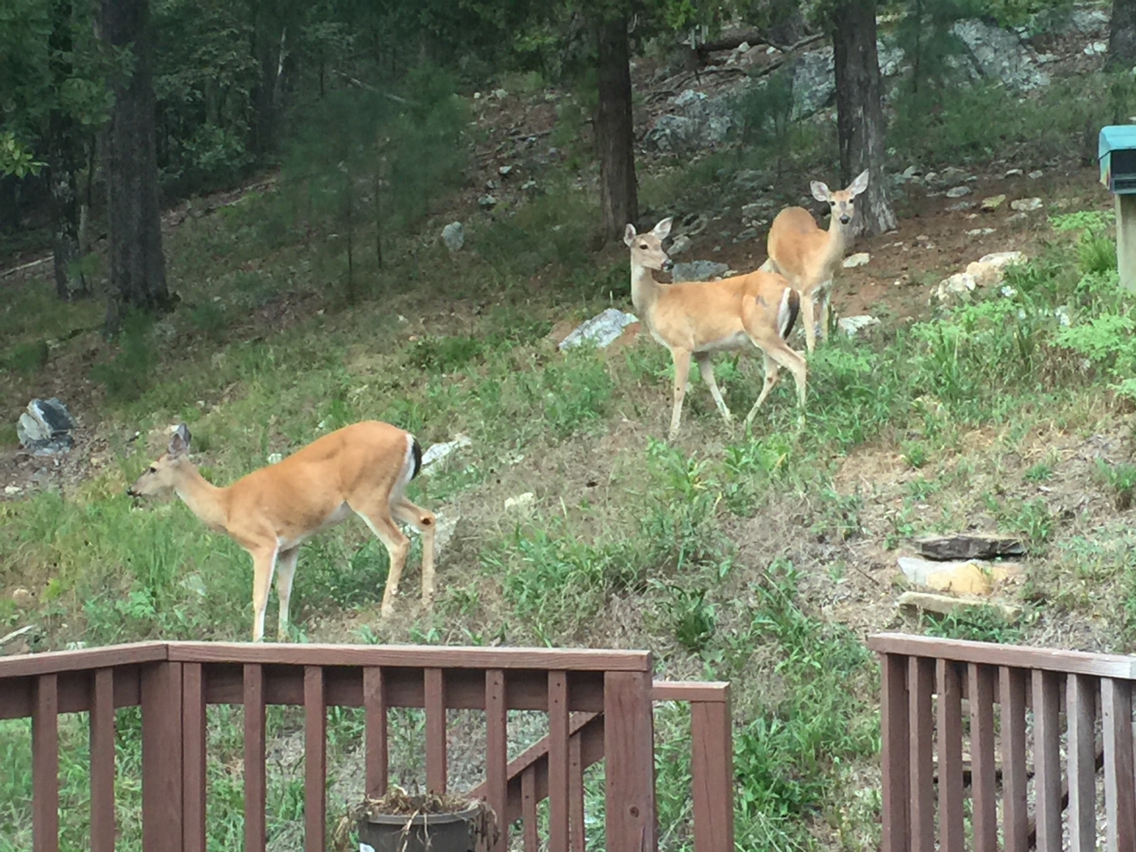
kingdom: Animalia
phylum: Chordata
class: Mammalia
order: Artiodactyla
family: Cervidae
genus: Odocoileus
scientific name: Odocoileus virginianus
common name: White-tailed deer
